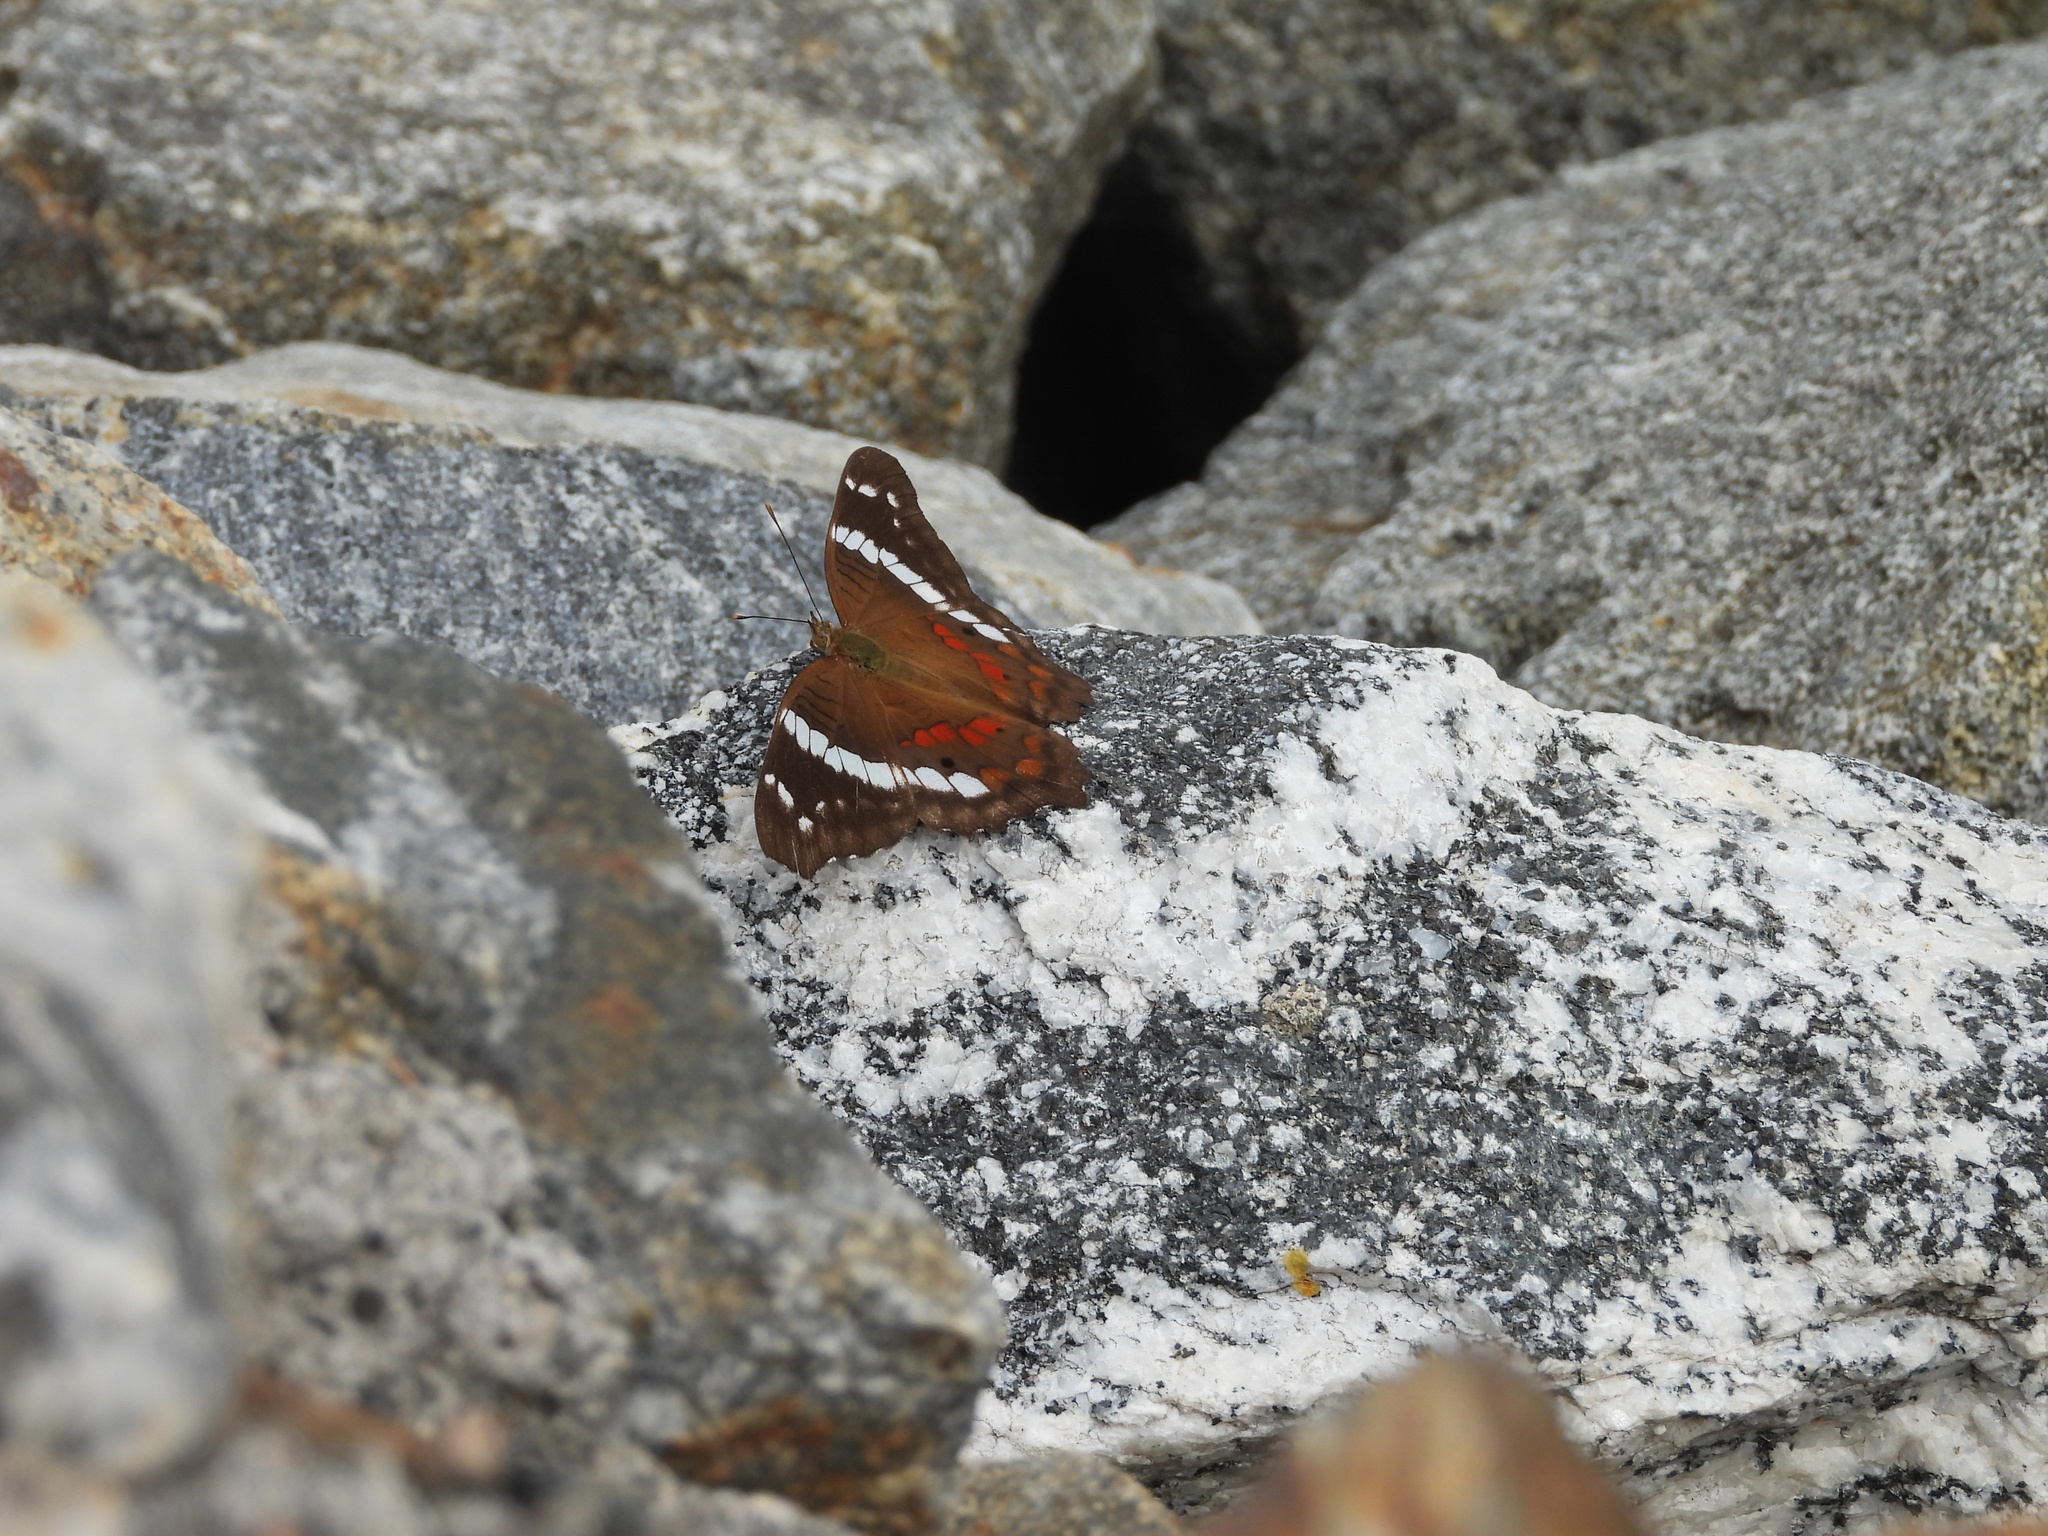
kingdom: Animalia
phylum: Arthropoda
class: Insecta
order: Lepidoptera
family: Nymphalidae
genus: Anartia
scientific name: Anartia fatima
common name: Banded peacock
